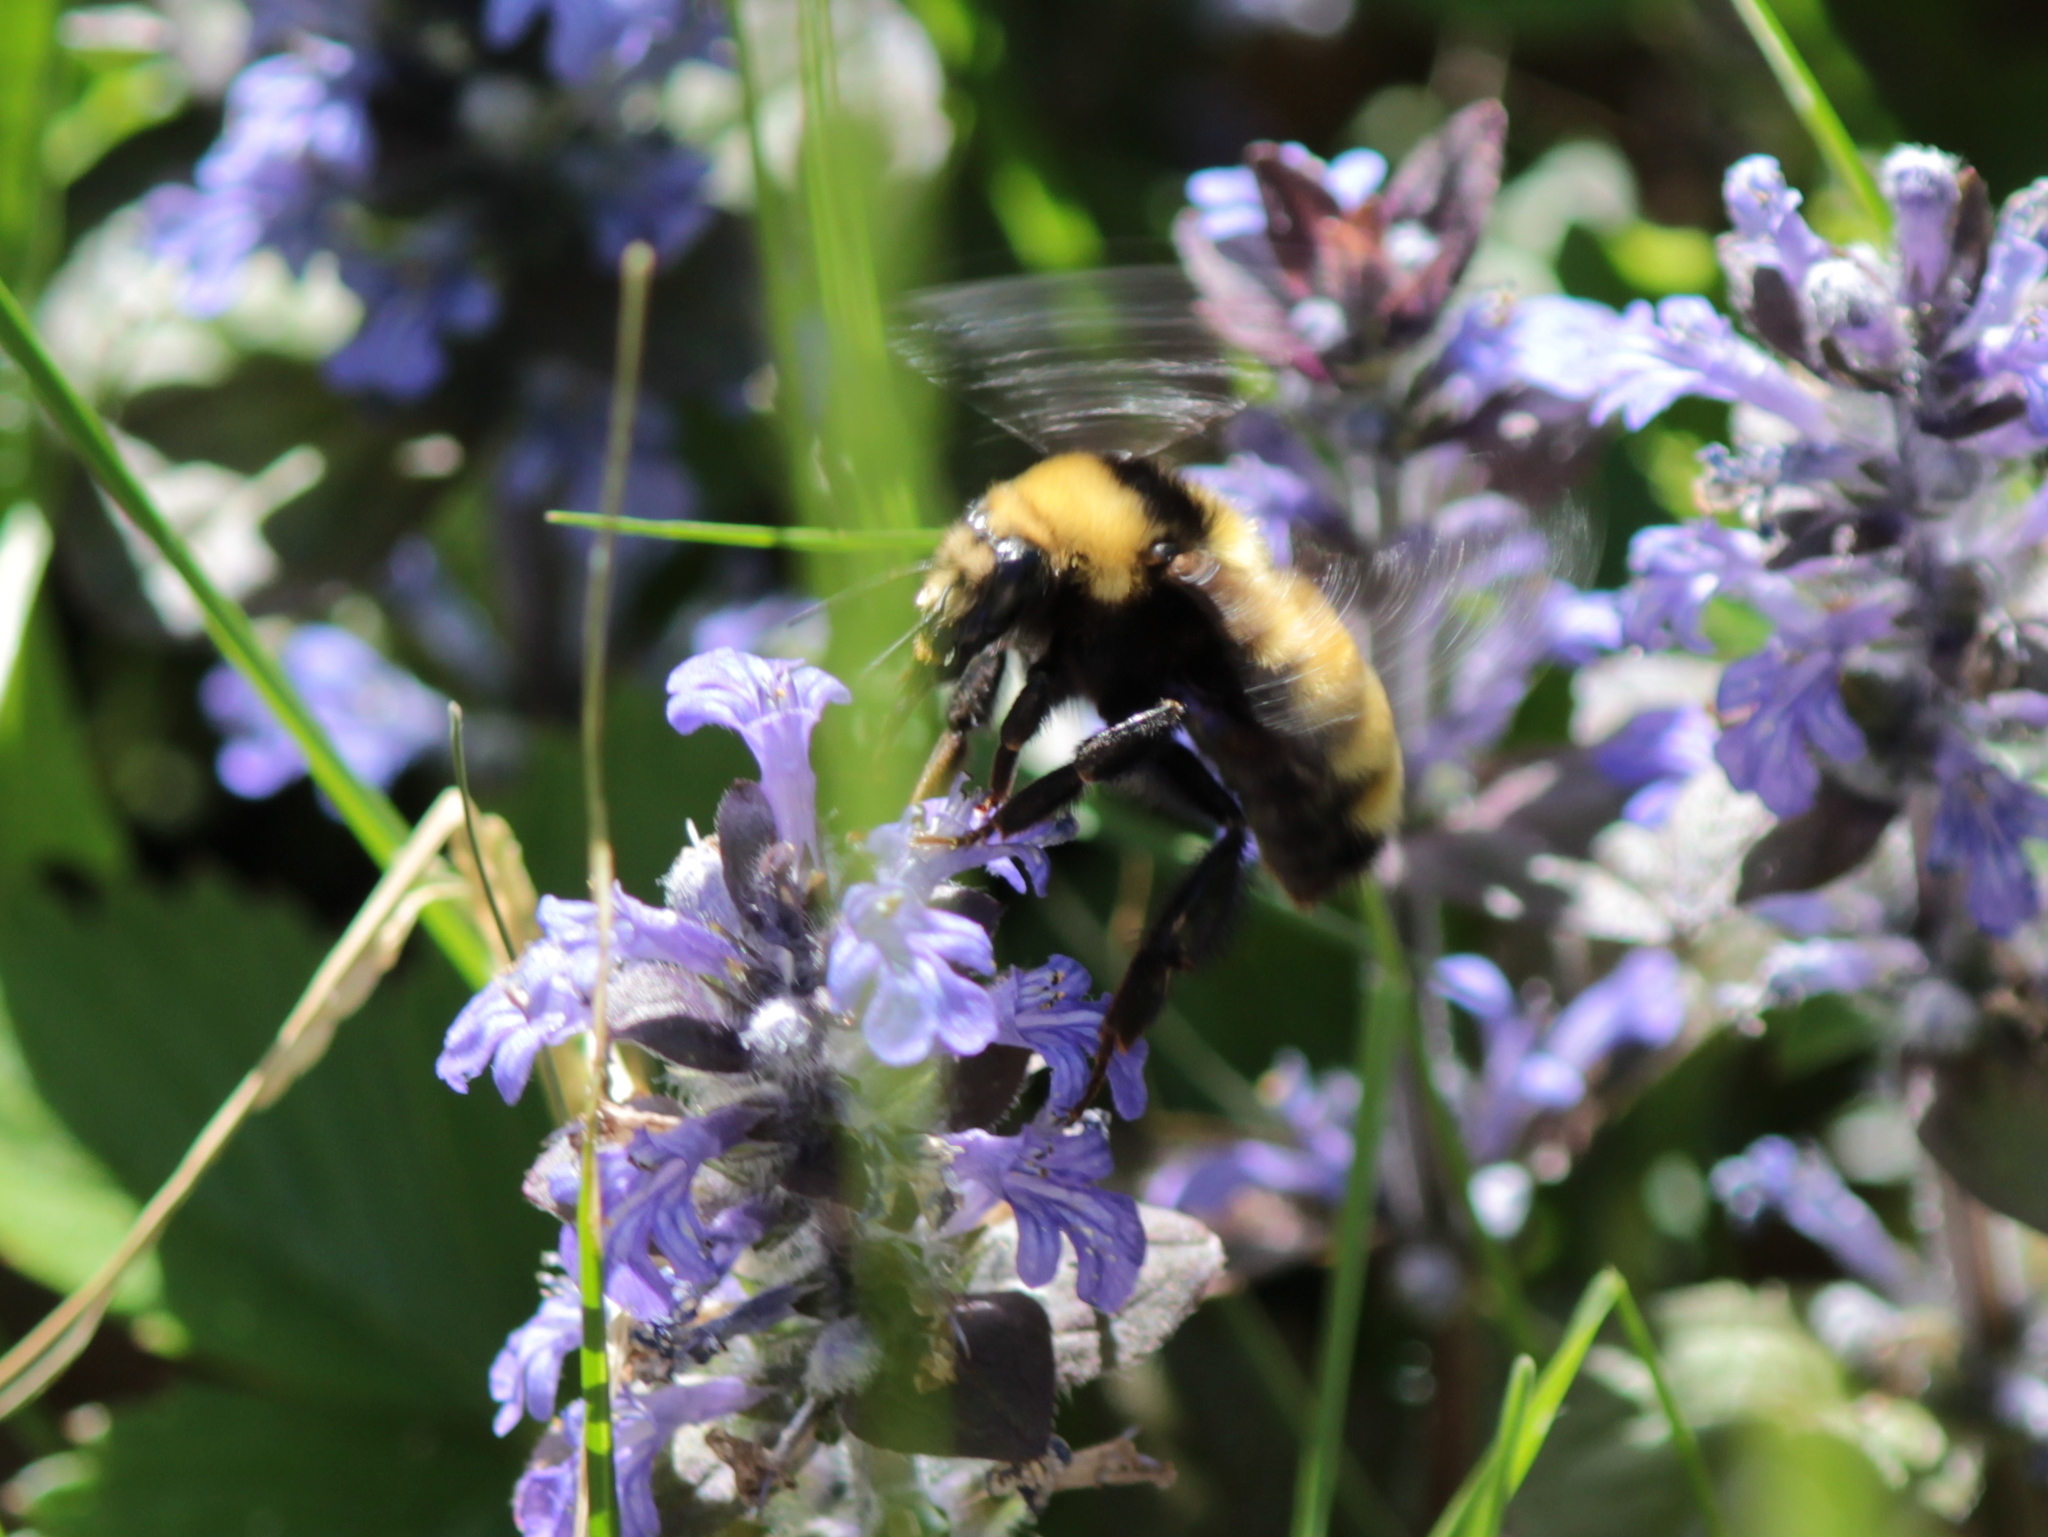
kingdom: Animalia
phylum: Arthropoda
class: Insecta
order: Hymenoptera
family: Apidae
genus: Bombus
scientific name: Bombus borealis
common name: Northern amber bumble bee
